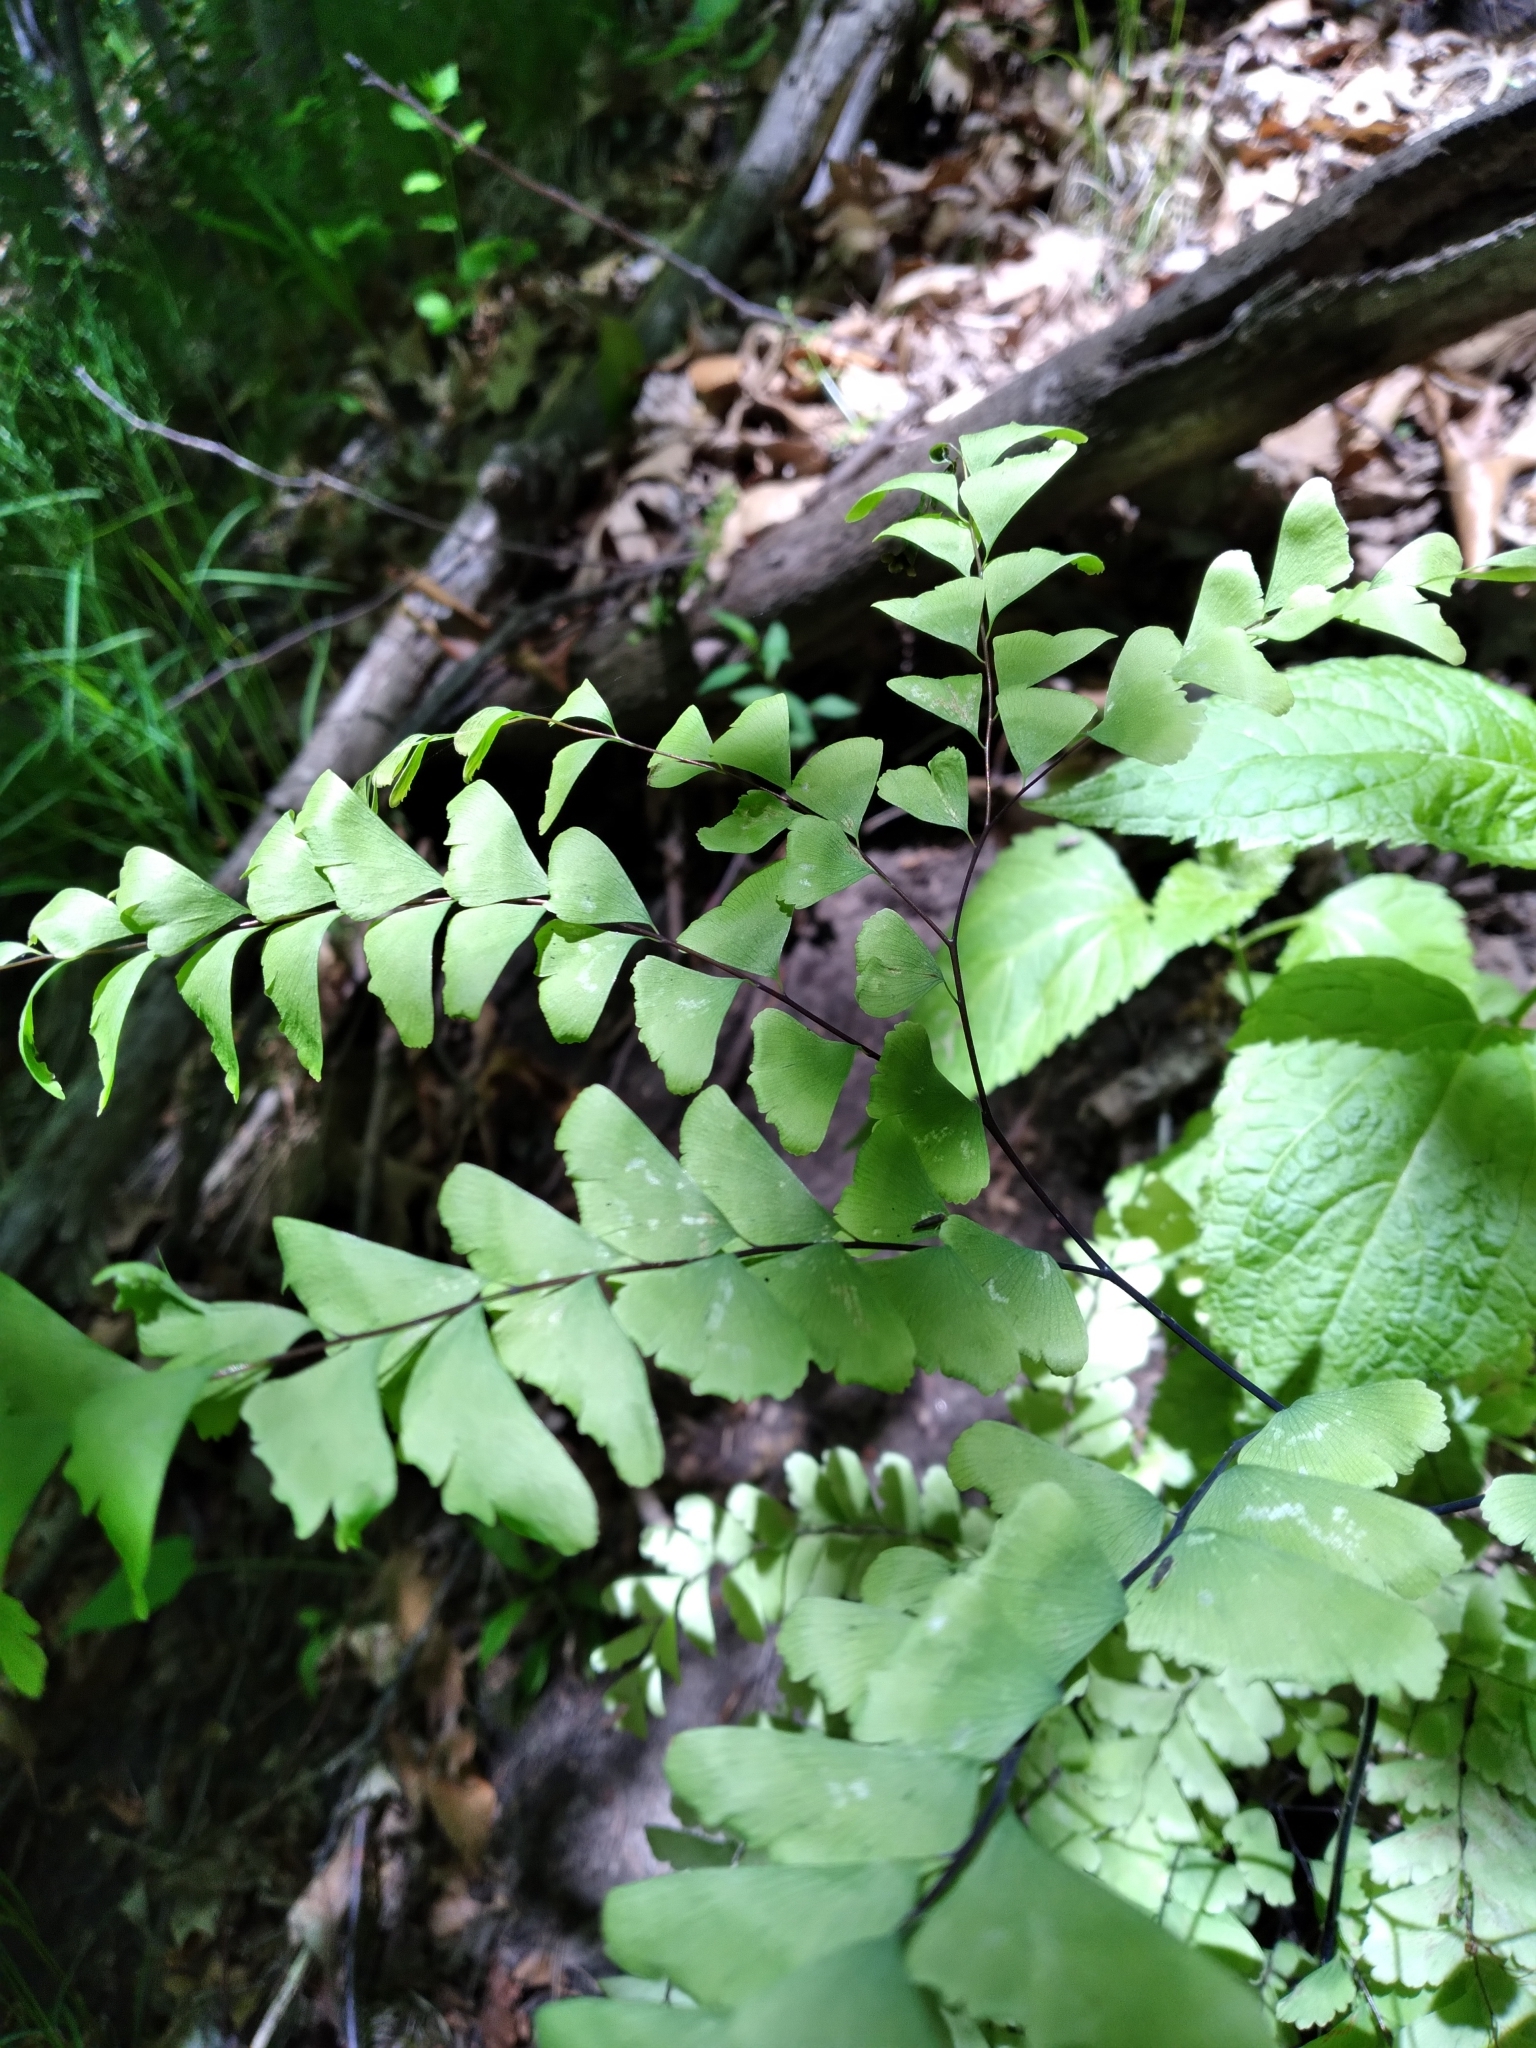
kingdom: Plantae
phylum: Tracheophyta
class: Polypodiopsida
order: Polypodiales
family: Pteridaceae
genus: Adiantum
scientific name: Adiantum pedatum
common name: Five-finger fern
